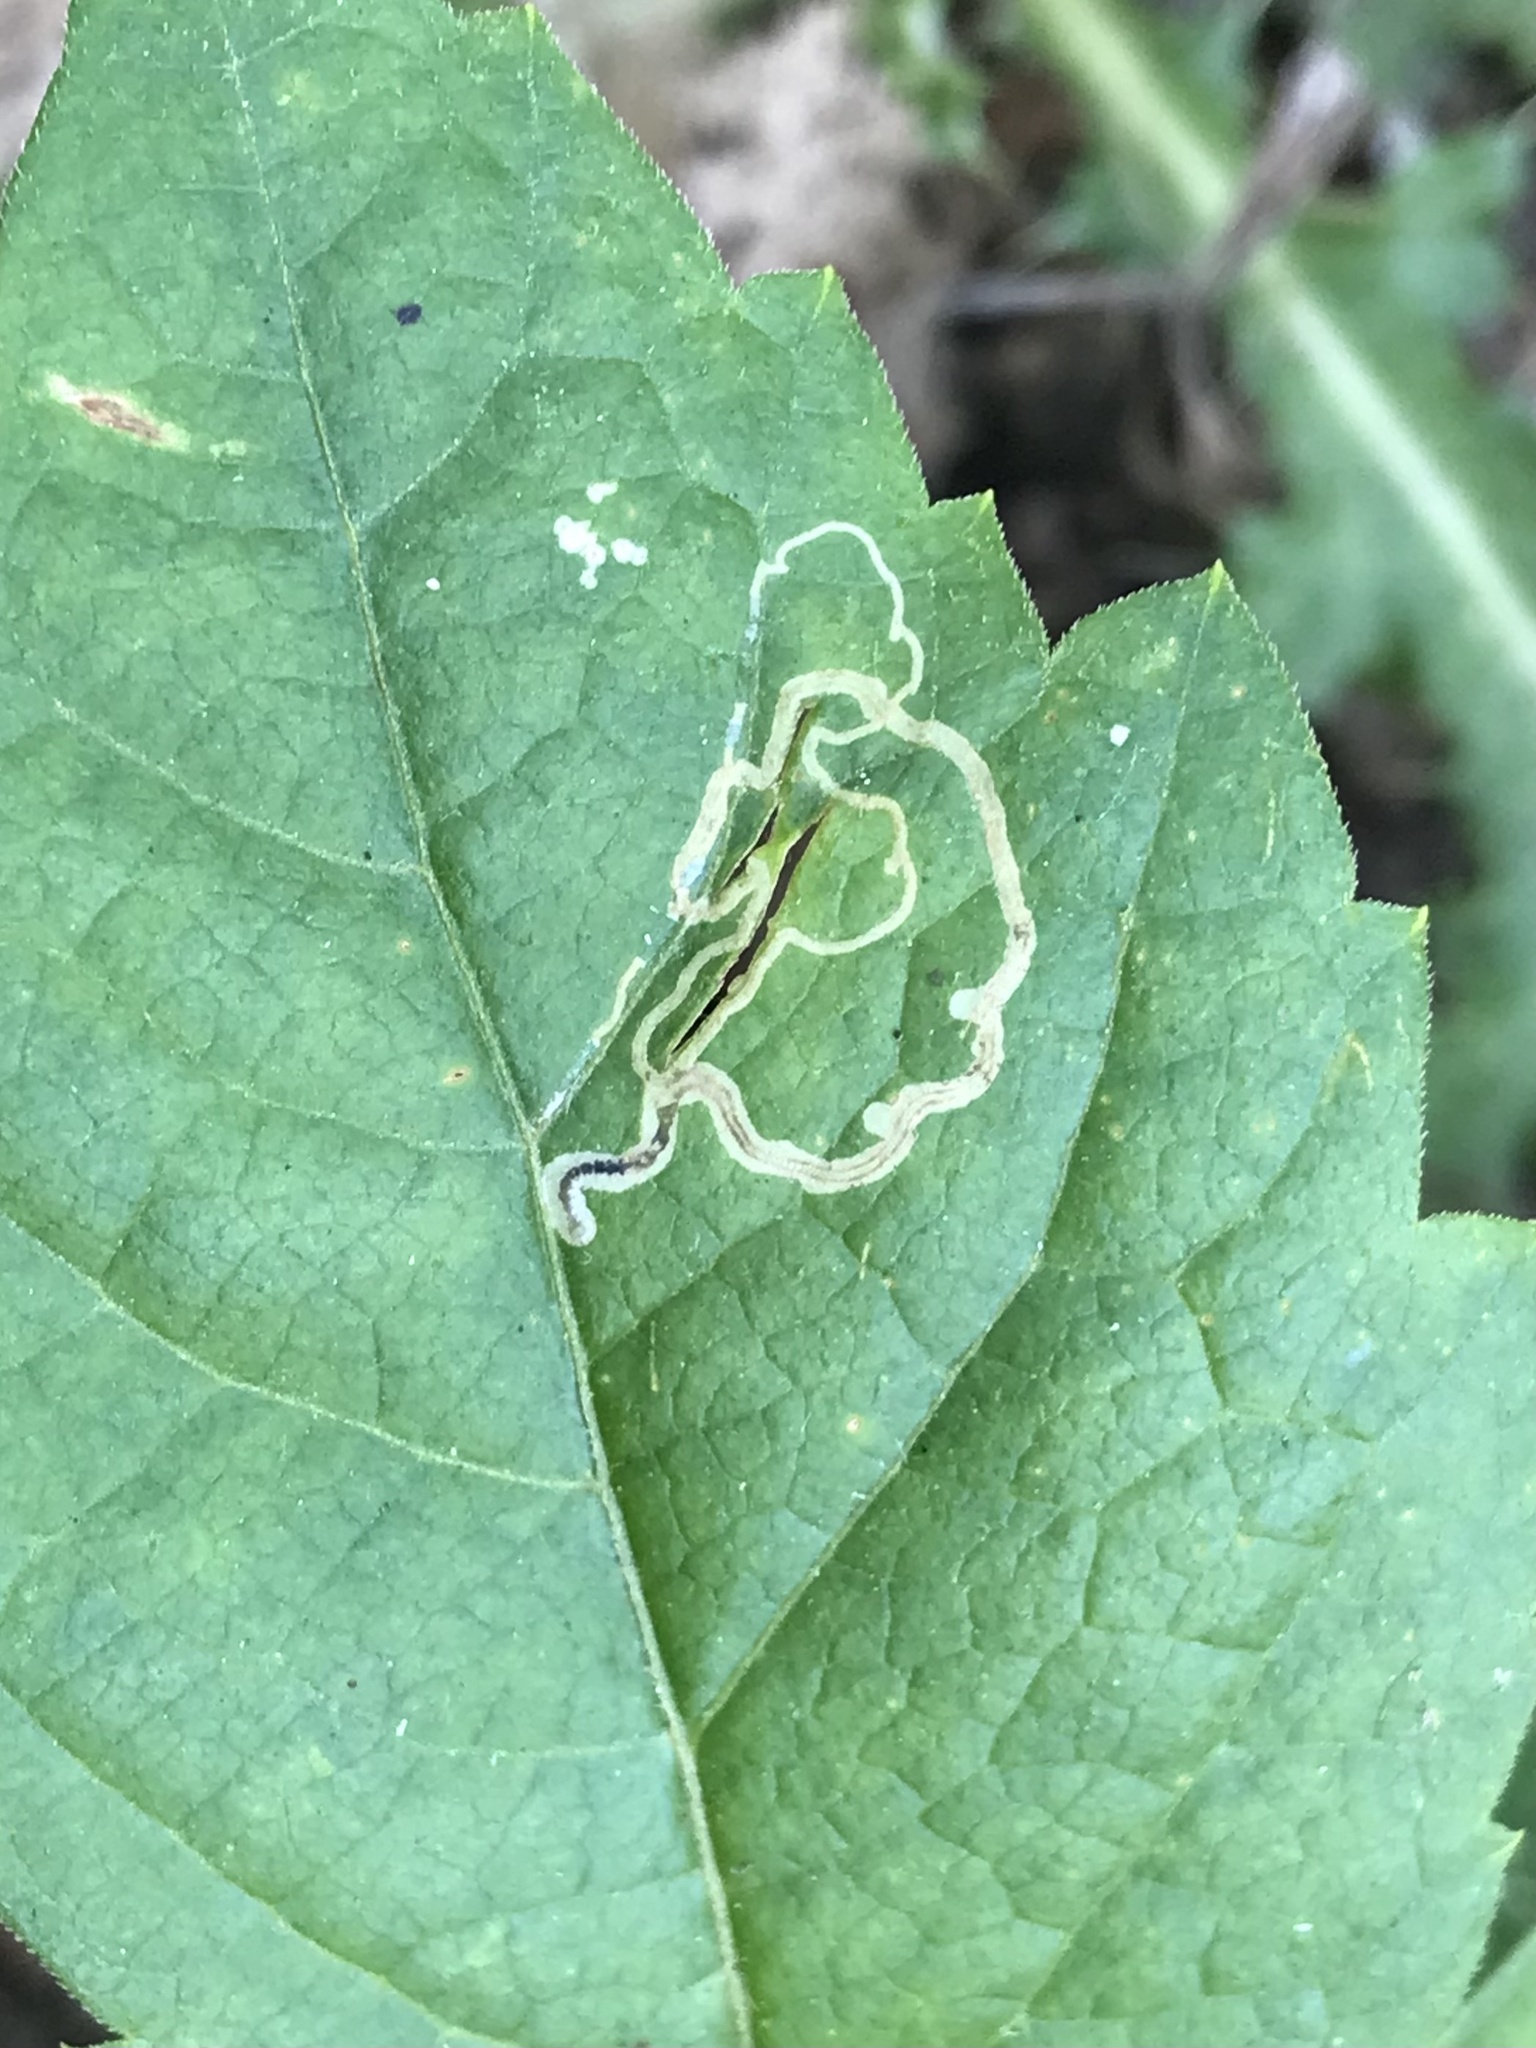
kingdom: Animalia
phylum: Arthropoda
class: Insecta
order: Lepidoptera
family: Gracillariidae
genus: Phyllocnistis
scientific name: Phyllocnistis vitifoliella
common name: Grape leaf-miner moth
